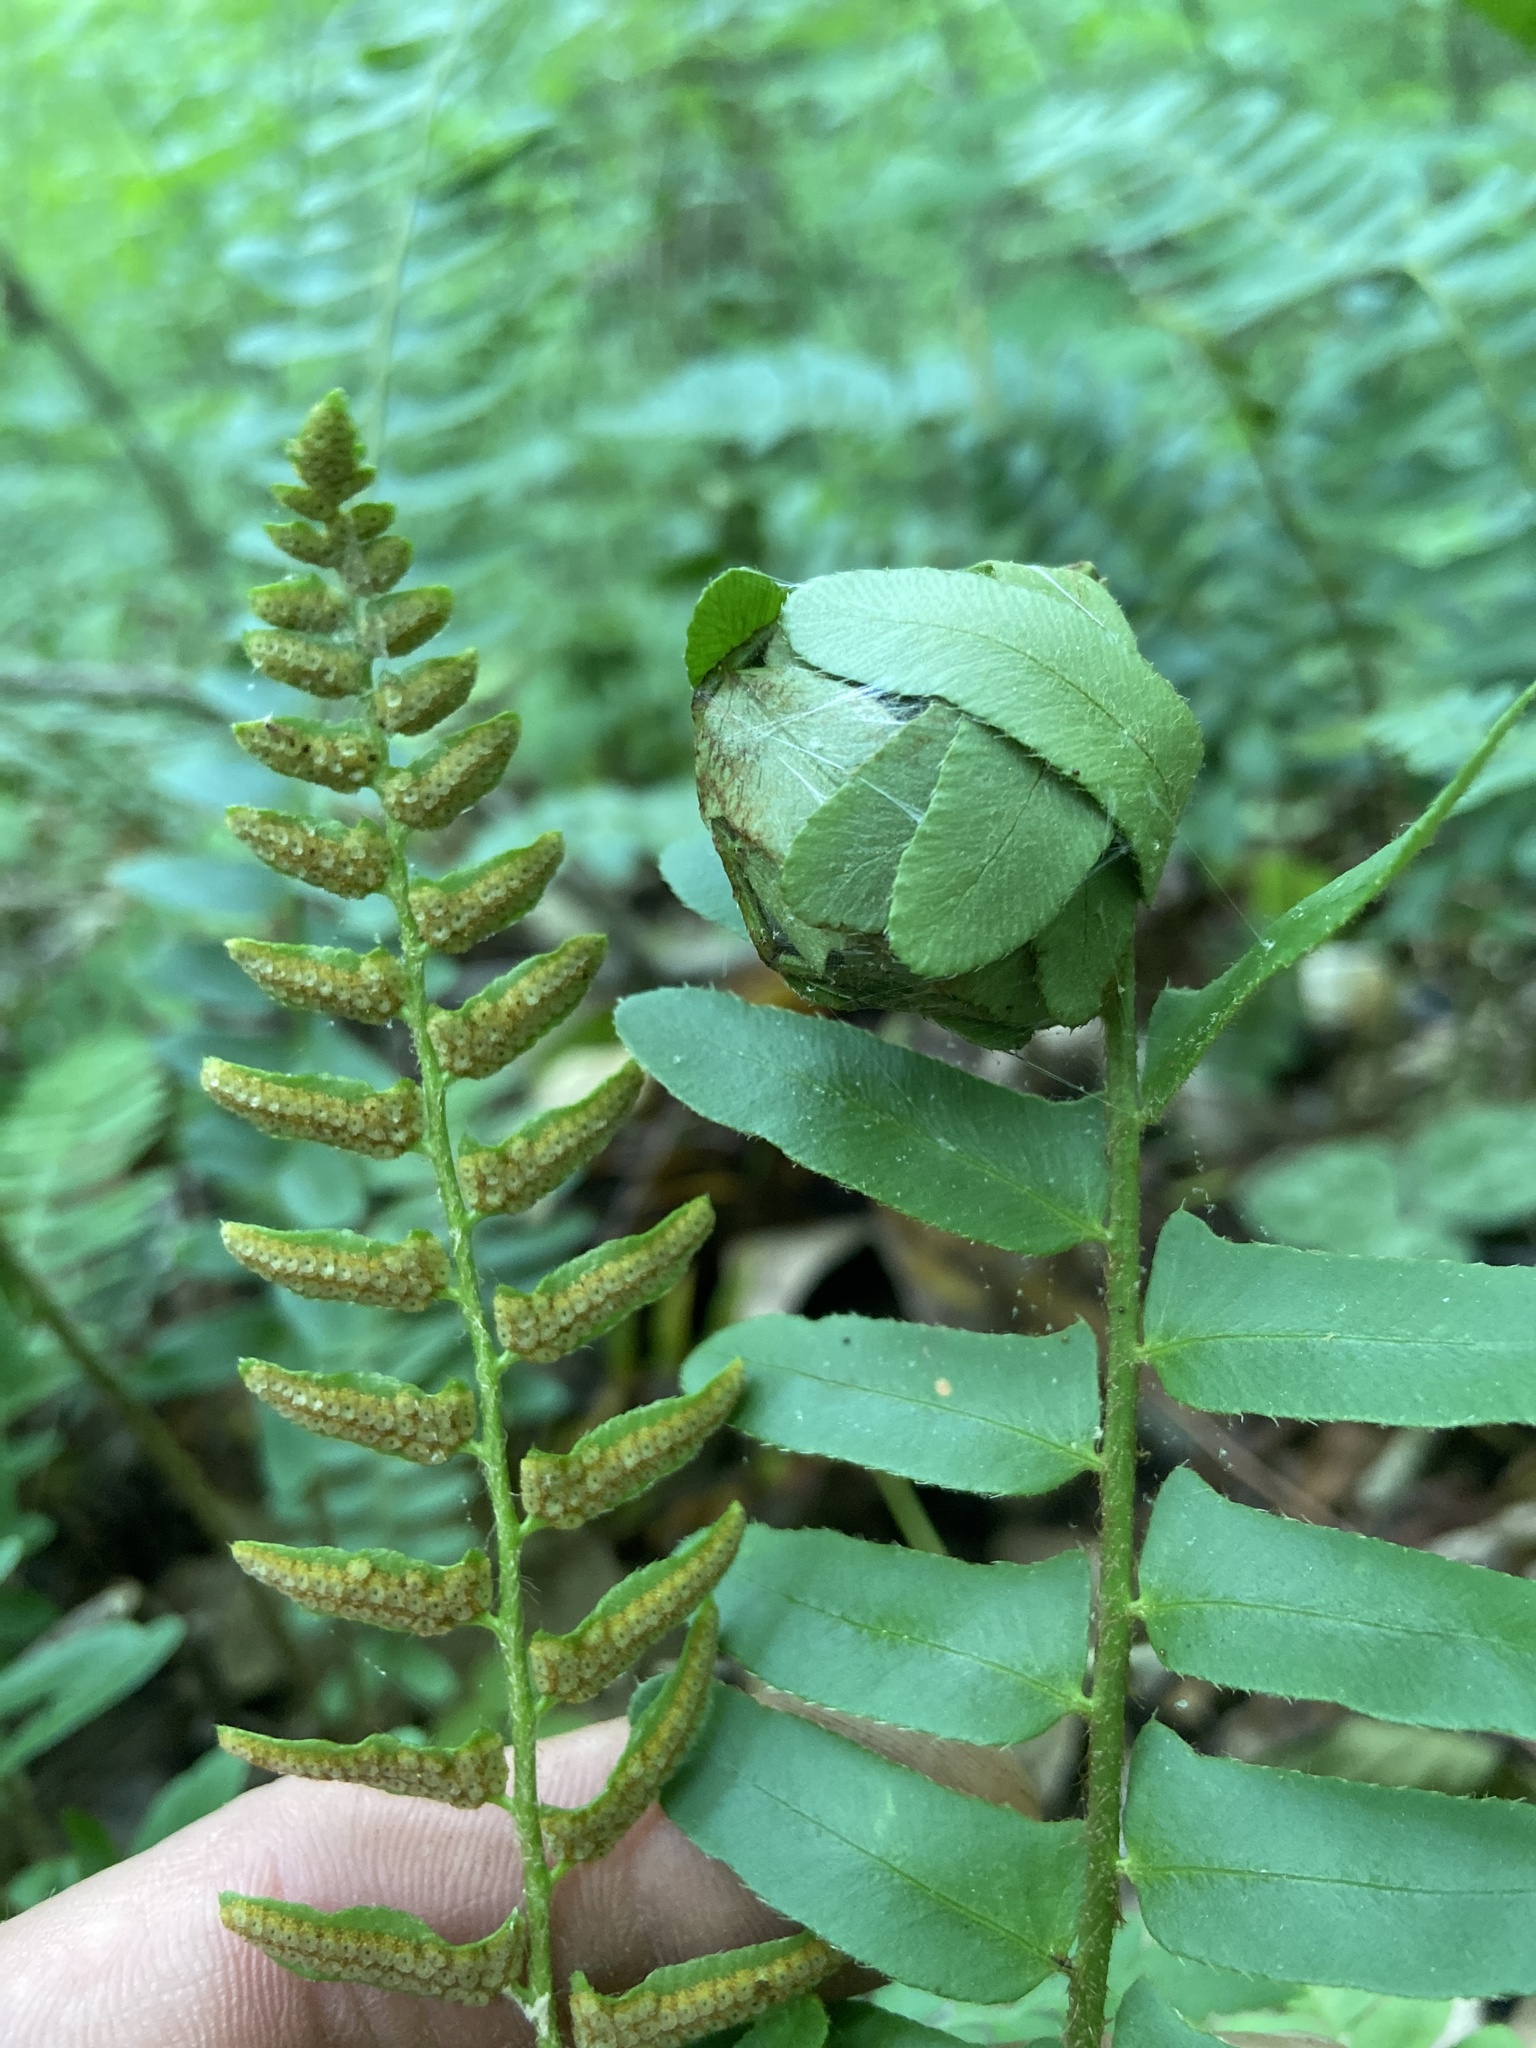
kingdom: Plantae
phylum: Tracheophyta
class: Polypodiopsida
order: Polypodiales
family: Dryopteridaceae
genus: Polystichum
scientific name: Polystichum acrostichoides
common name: Christmas fern
